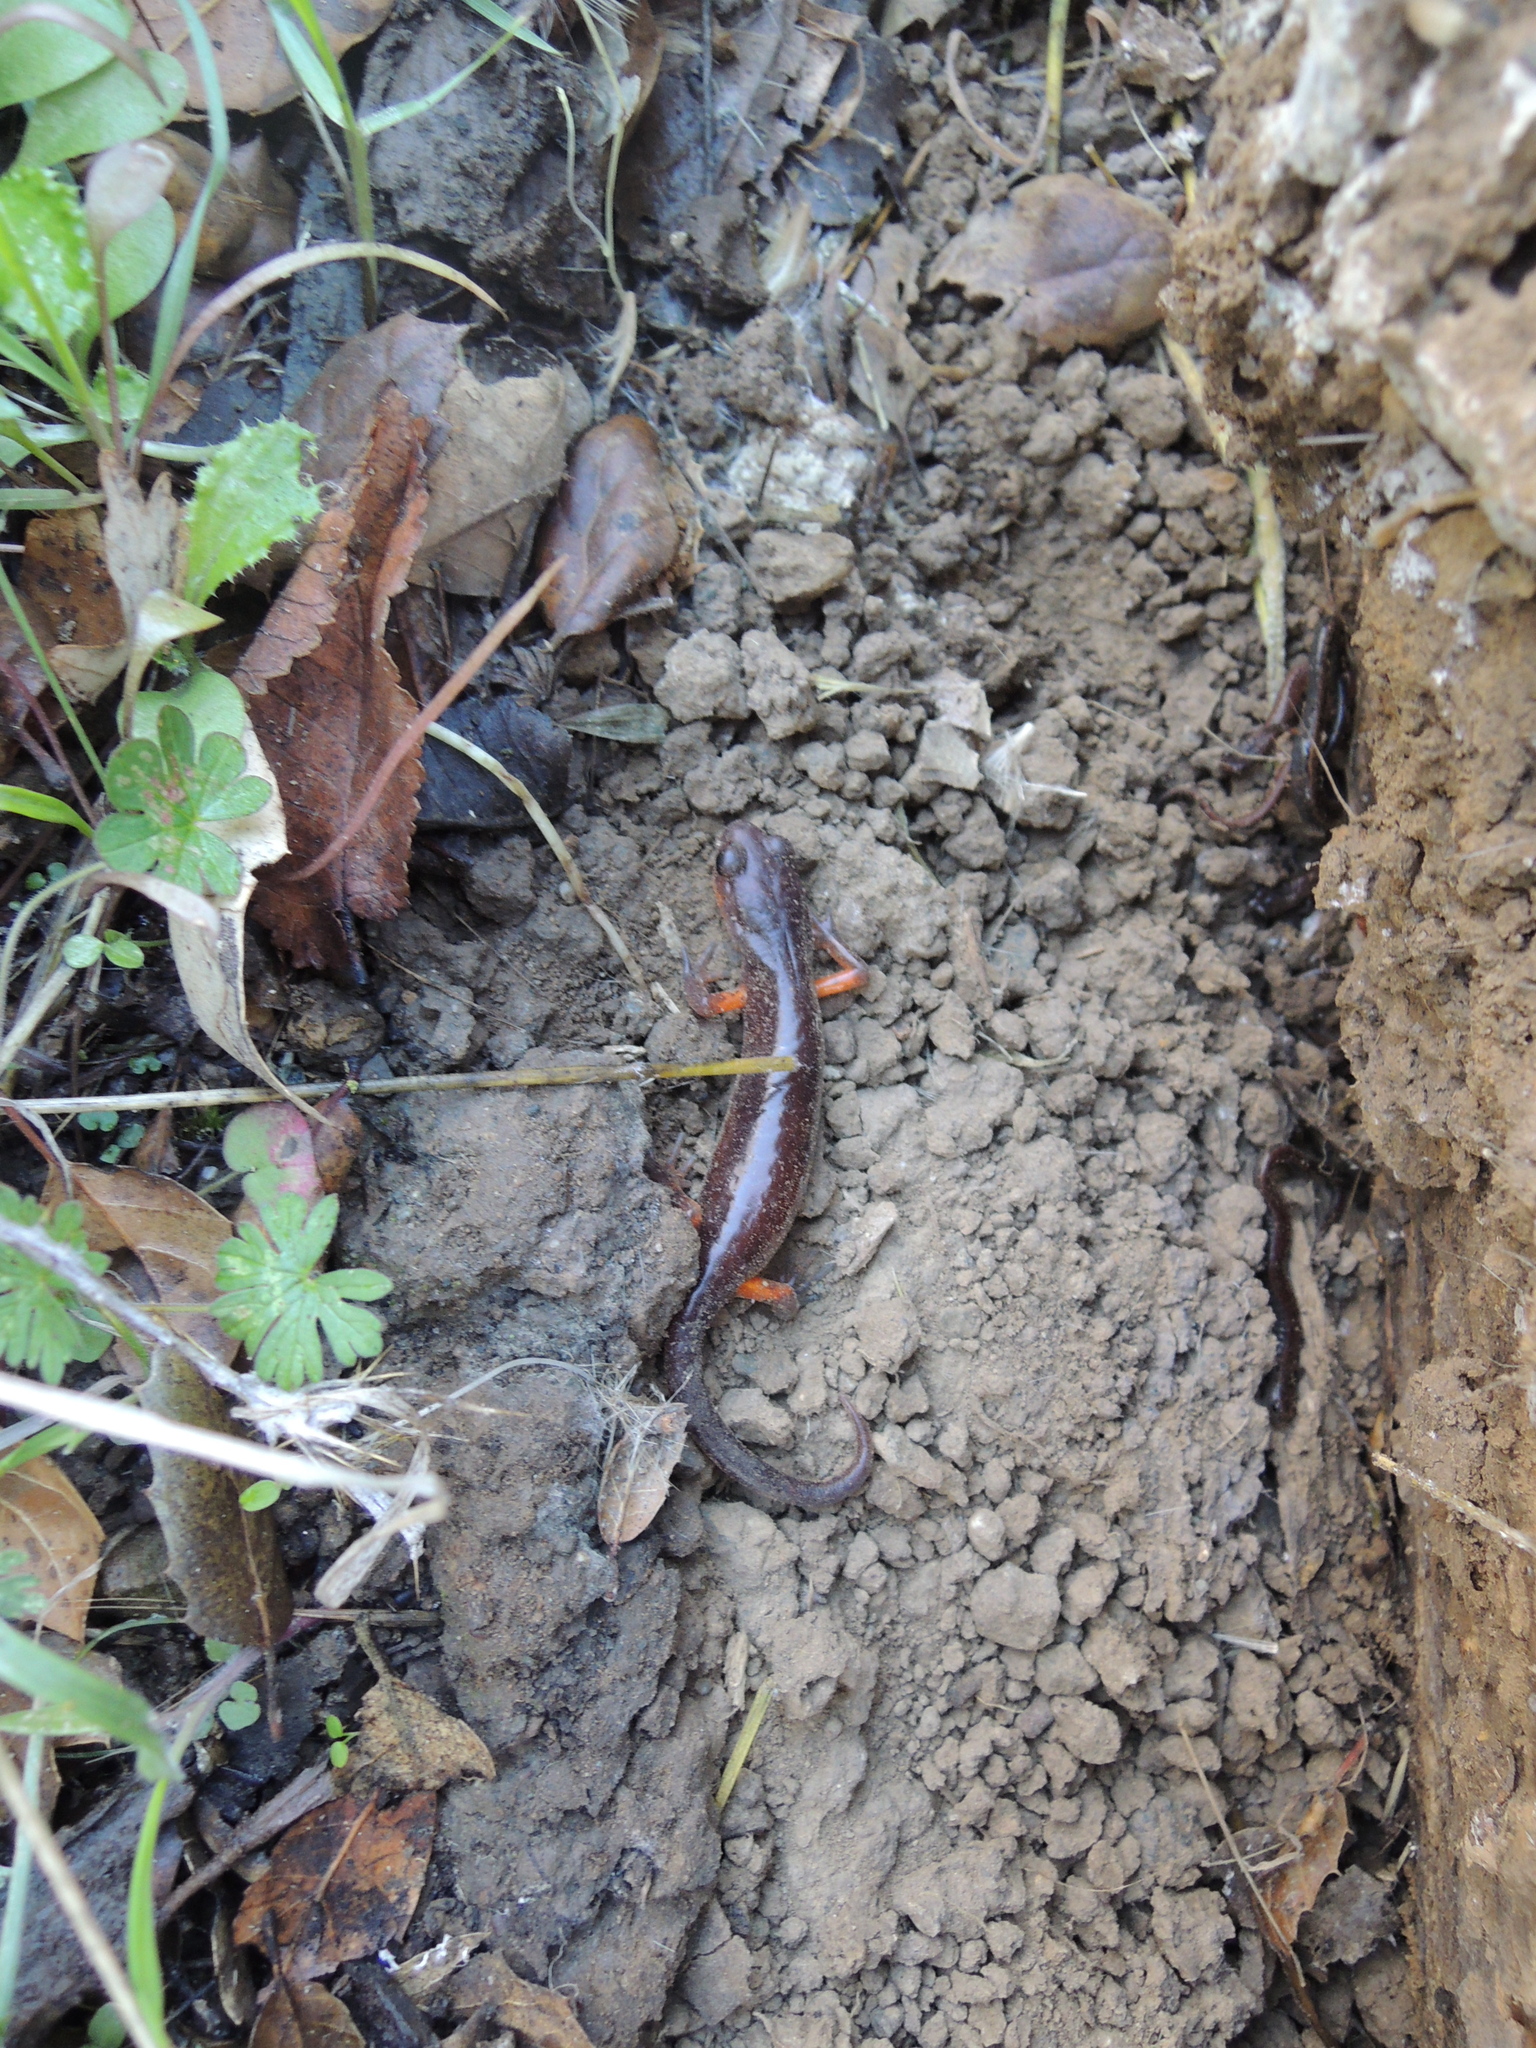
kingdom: Animalia
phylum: Chordata
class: Amphibia
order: Caudata
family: Plethodontidae
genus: Ensatina
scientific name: Ensatina eschscholtzii
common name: Ensatina
